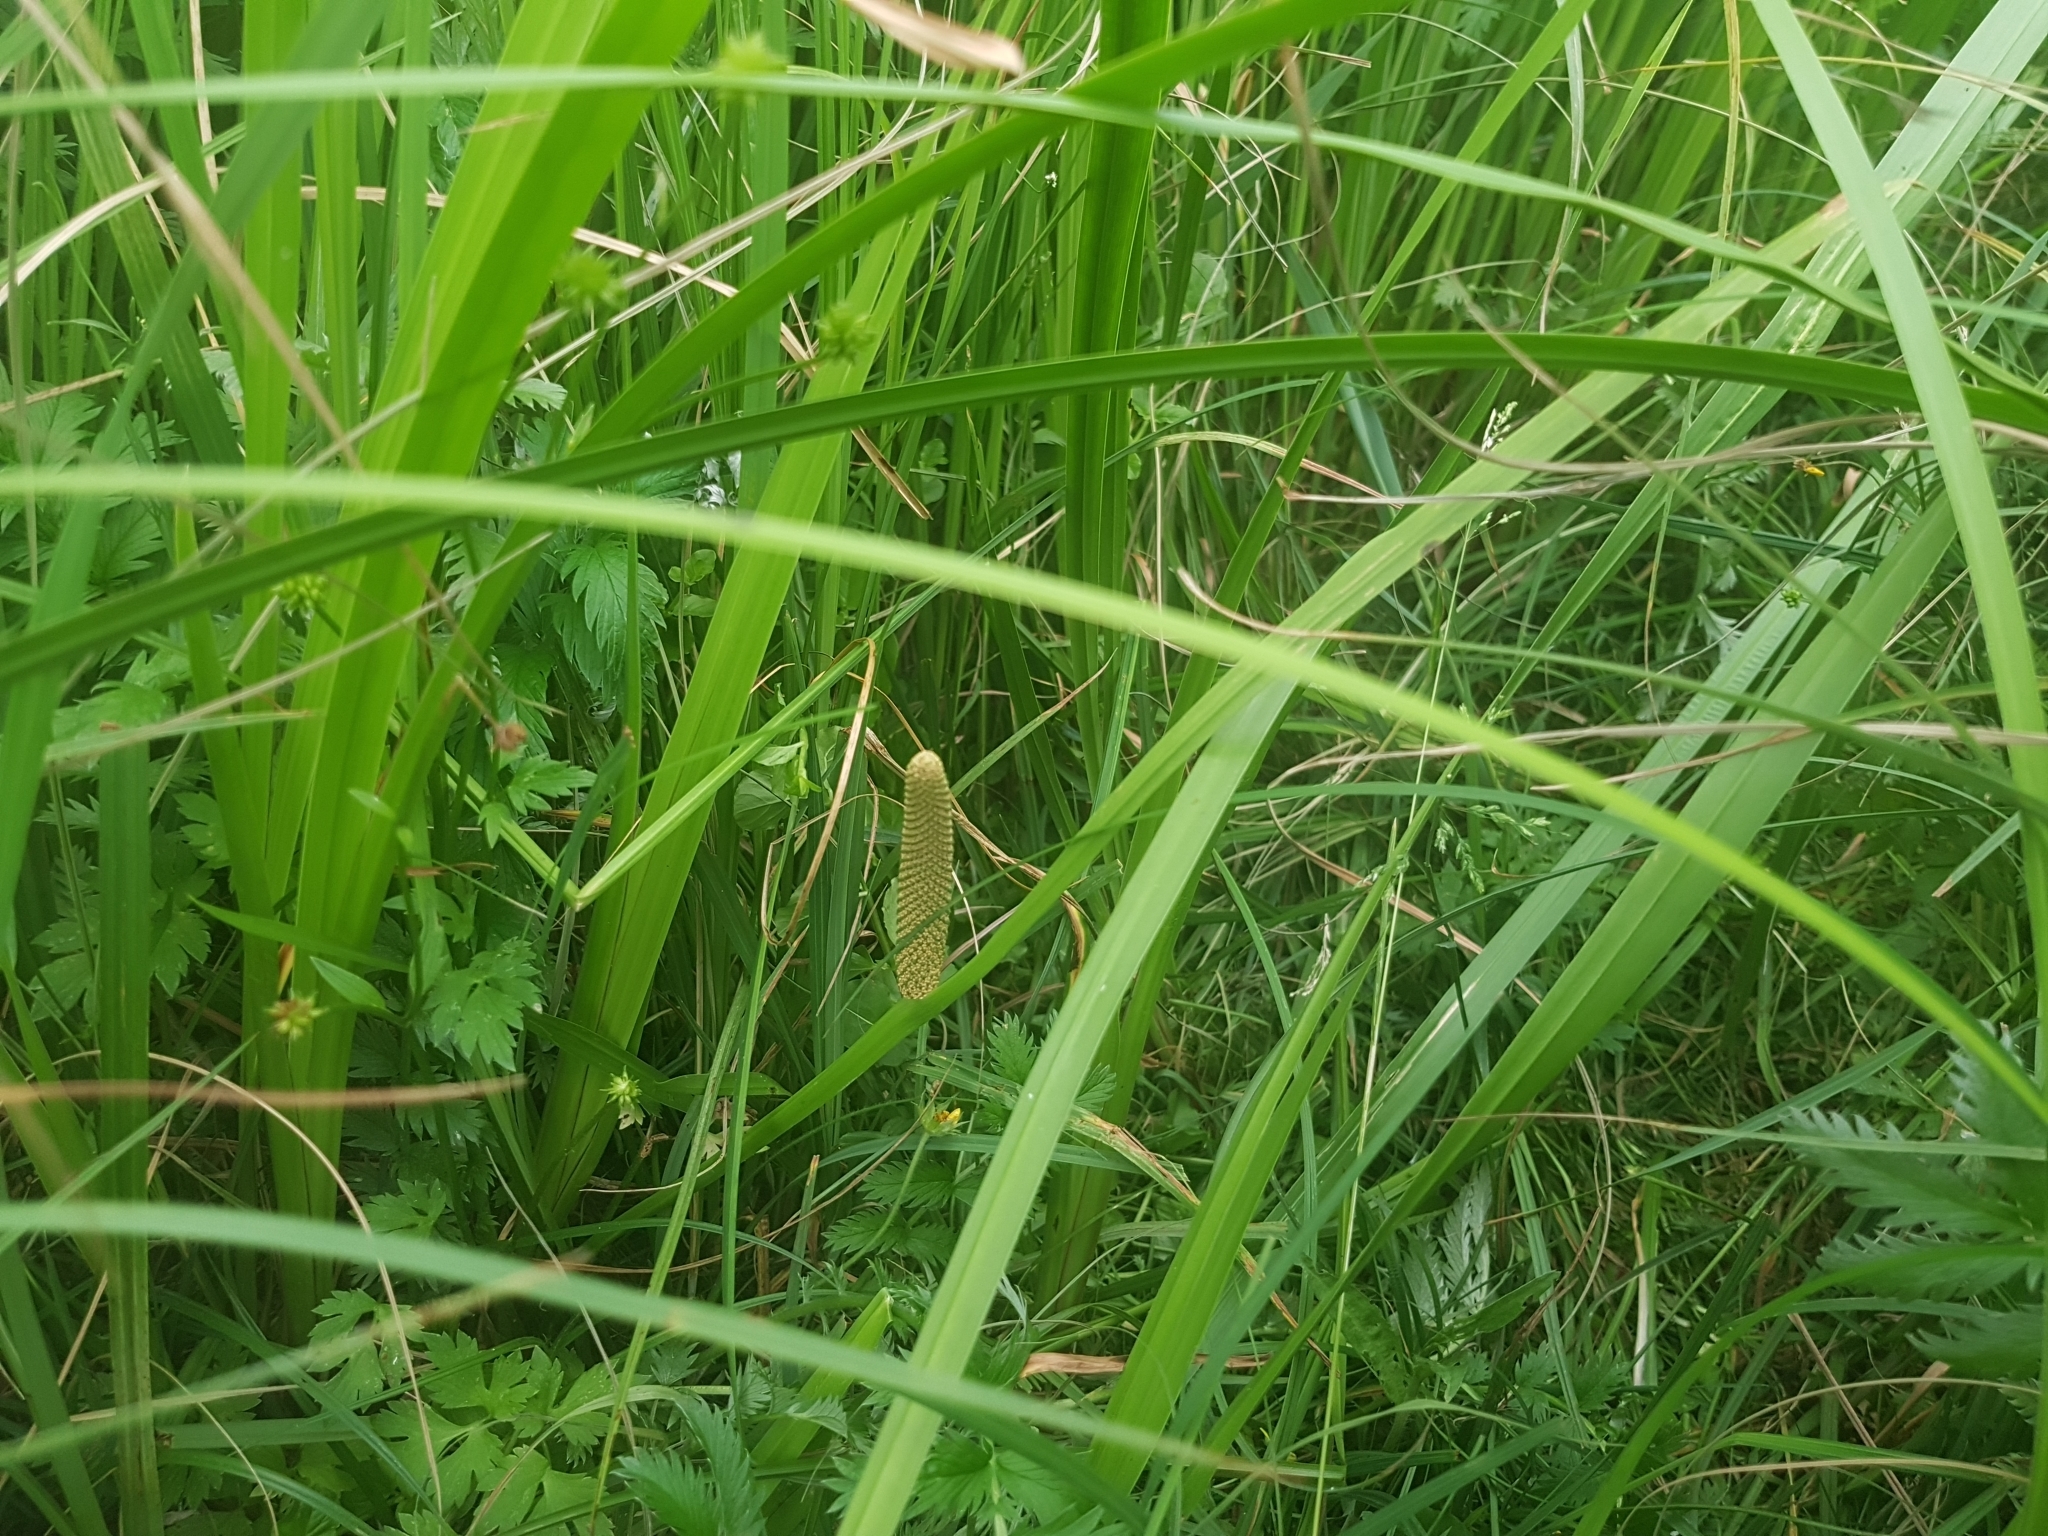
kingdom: Plantae
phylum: Tracheophyta
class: Liliopsida
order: Acorales
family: Acoraceae
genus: Acorus
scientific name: Acorus calamus
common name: Sweet-flag
